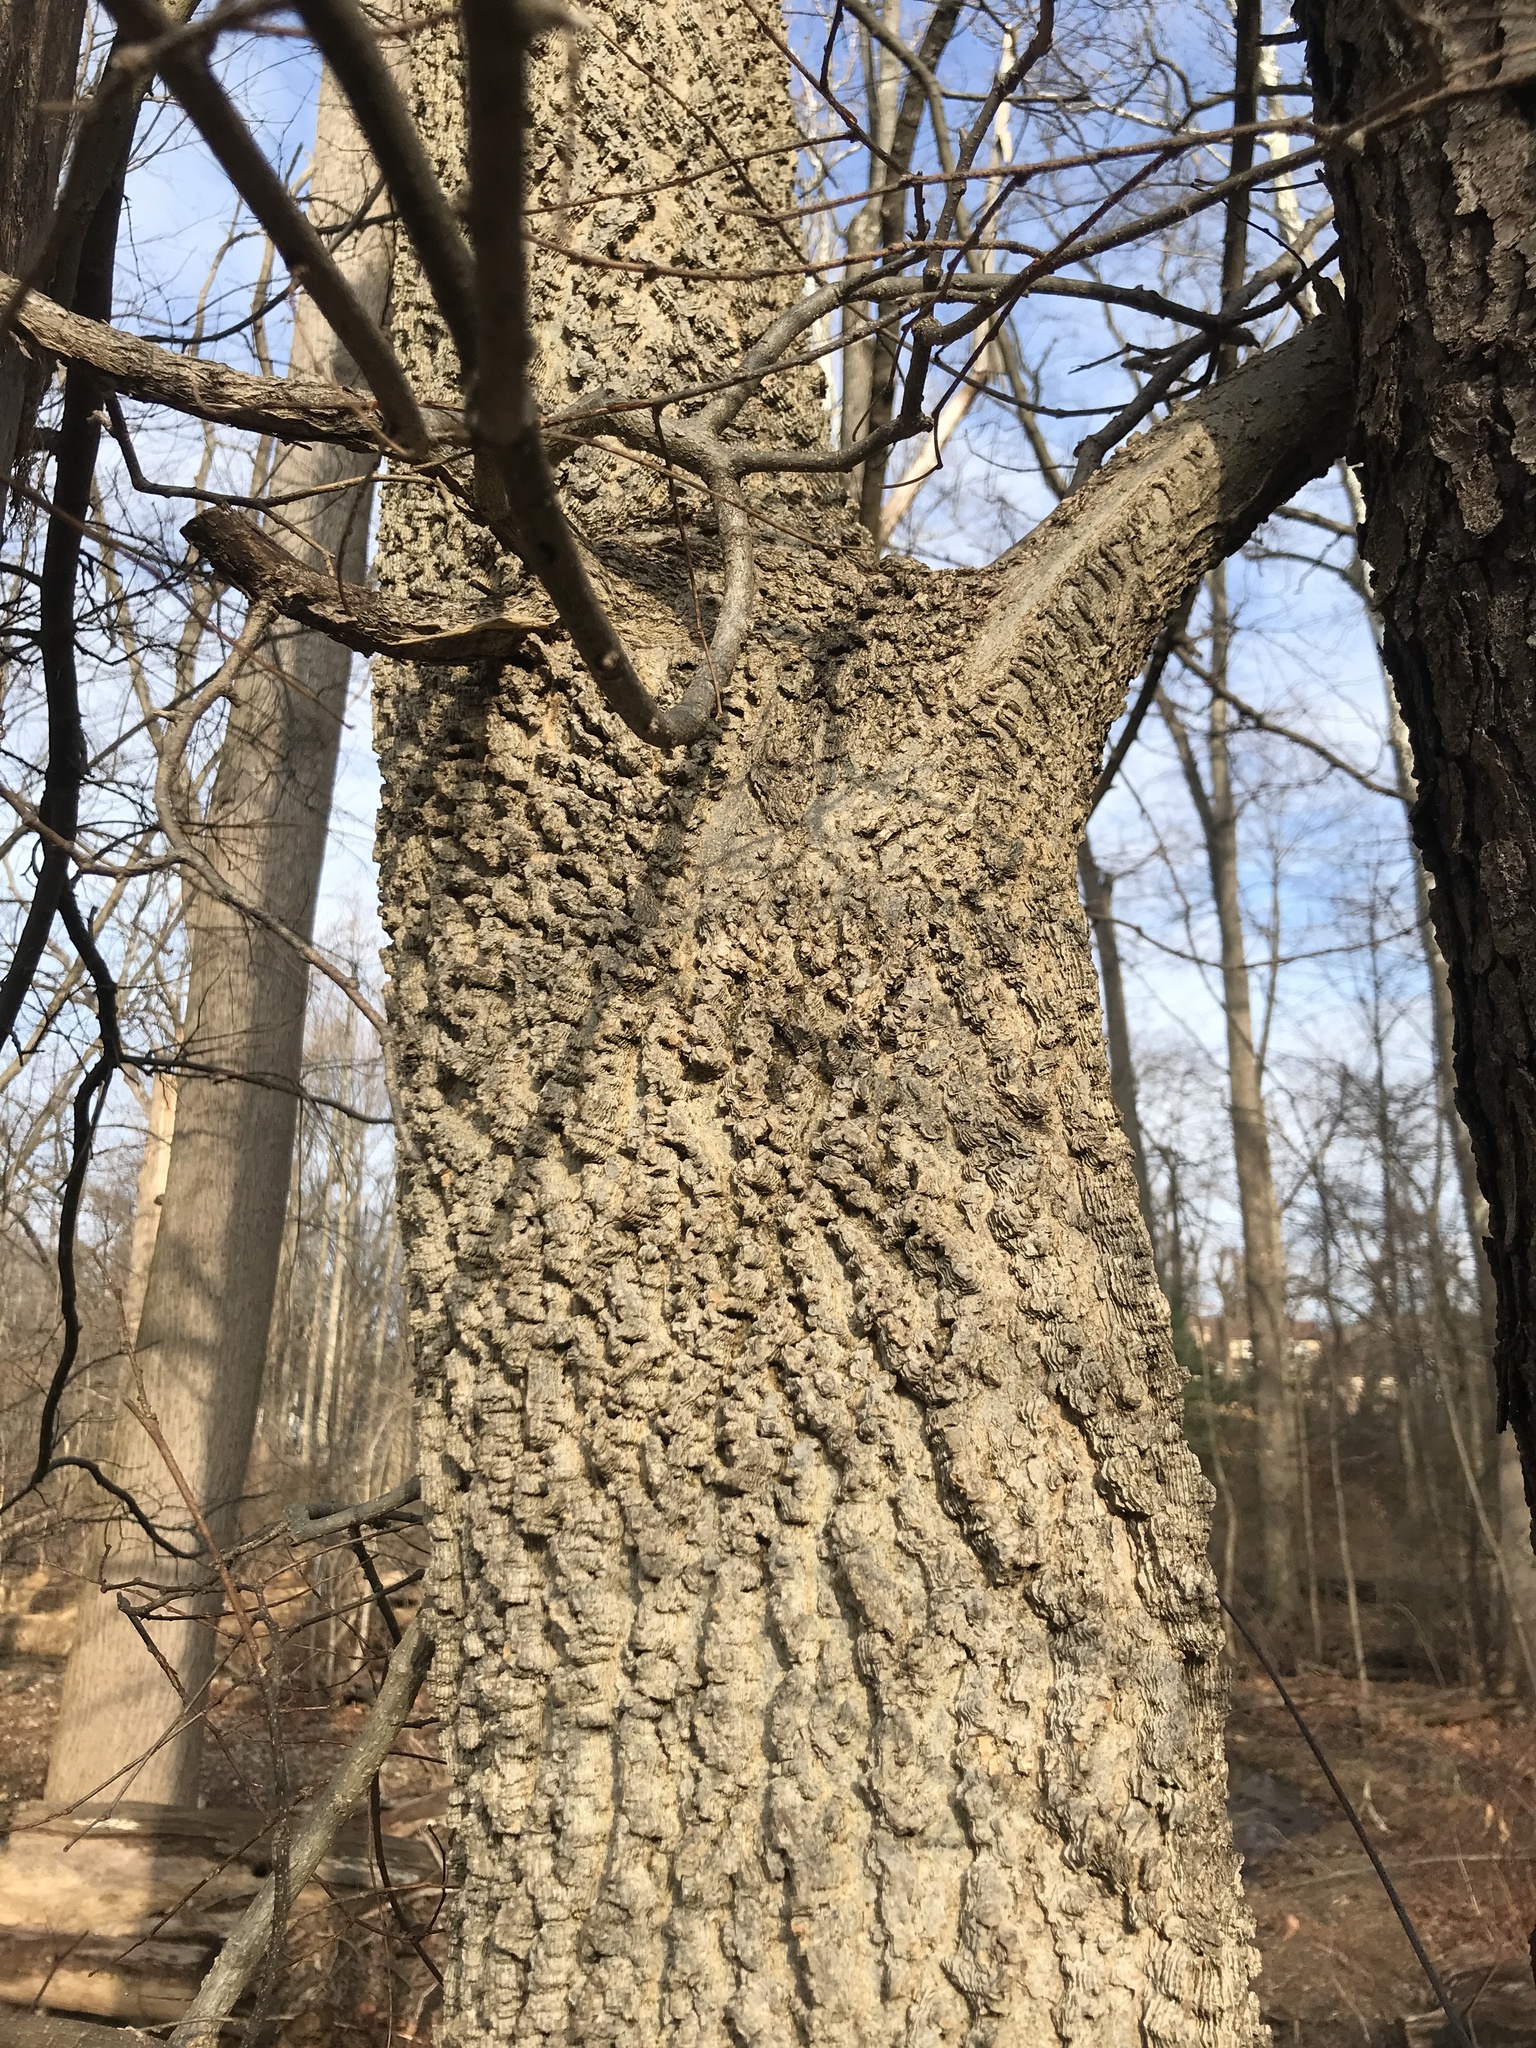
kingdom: Plantae
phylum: Tracheophyta
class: Magnoliopsida
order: Rosales
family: Cannabaceae
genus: Celtis
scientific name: Celtis occidentalis
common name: Common hackberry
